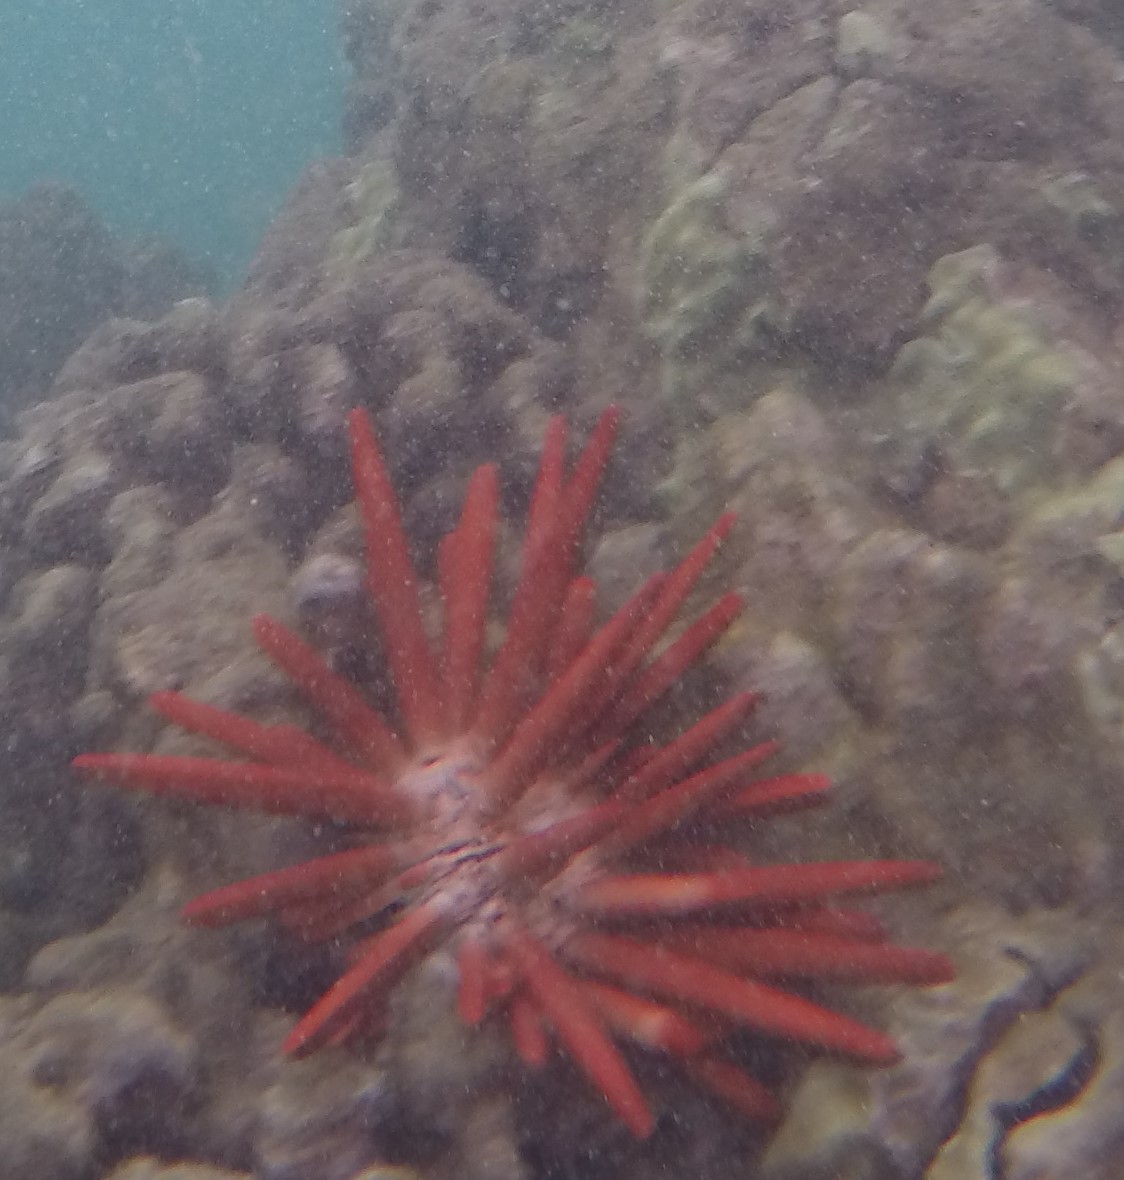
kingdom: Animalia
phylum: Echinodermata
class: Echinoidea
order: Camarodonta
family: Echinometridae
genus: Heterocentrotus
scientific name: Heterocentrotus mamillatus
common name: Slate pencil urchin
